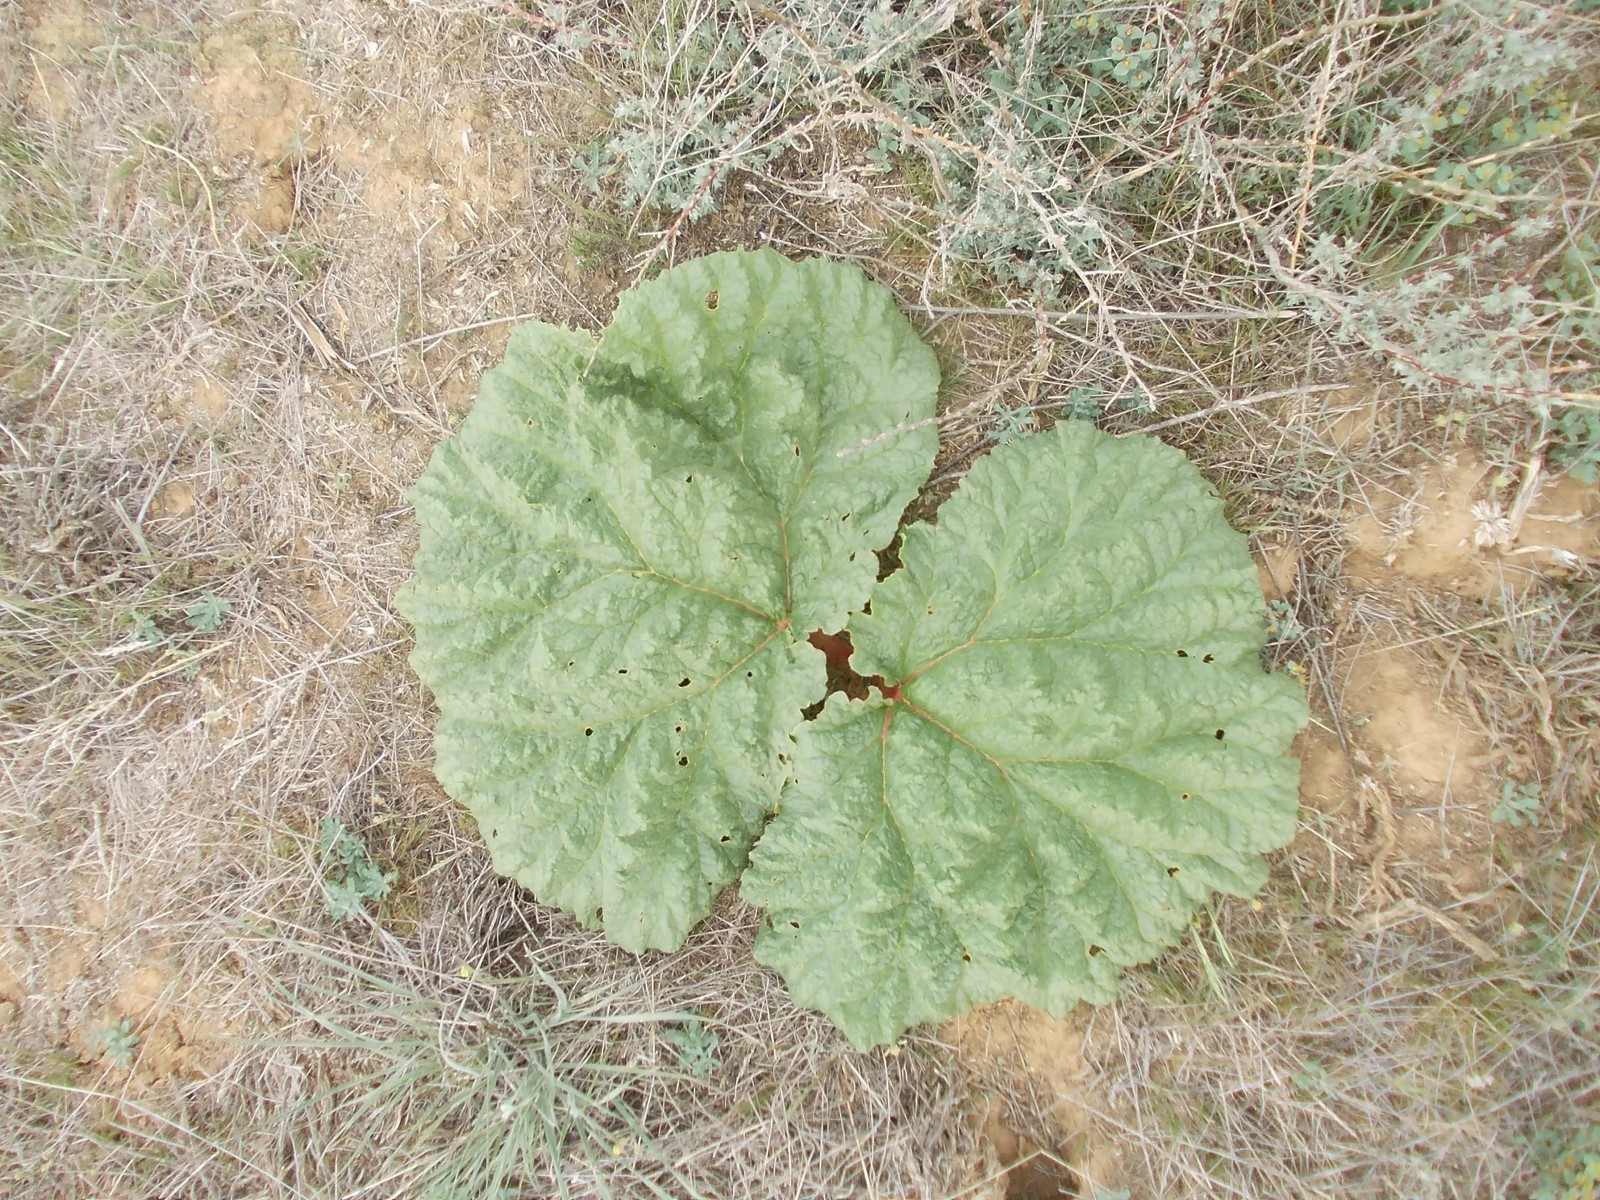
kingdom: Plantae
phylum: Tracheophyta
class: Magnoliopsida
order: Caryophyllales
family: Polygonaceae
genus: Rheum
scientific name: Rheum tataricum
